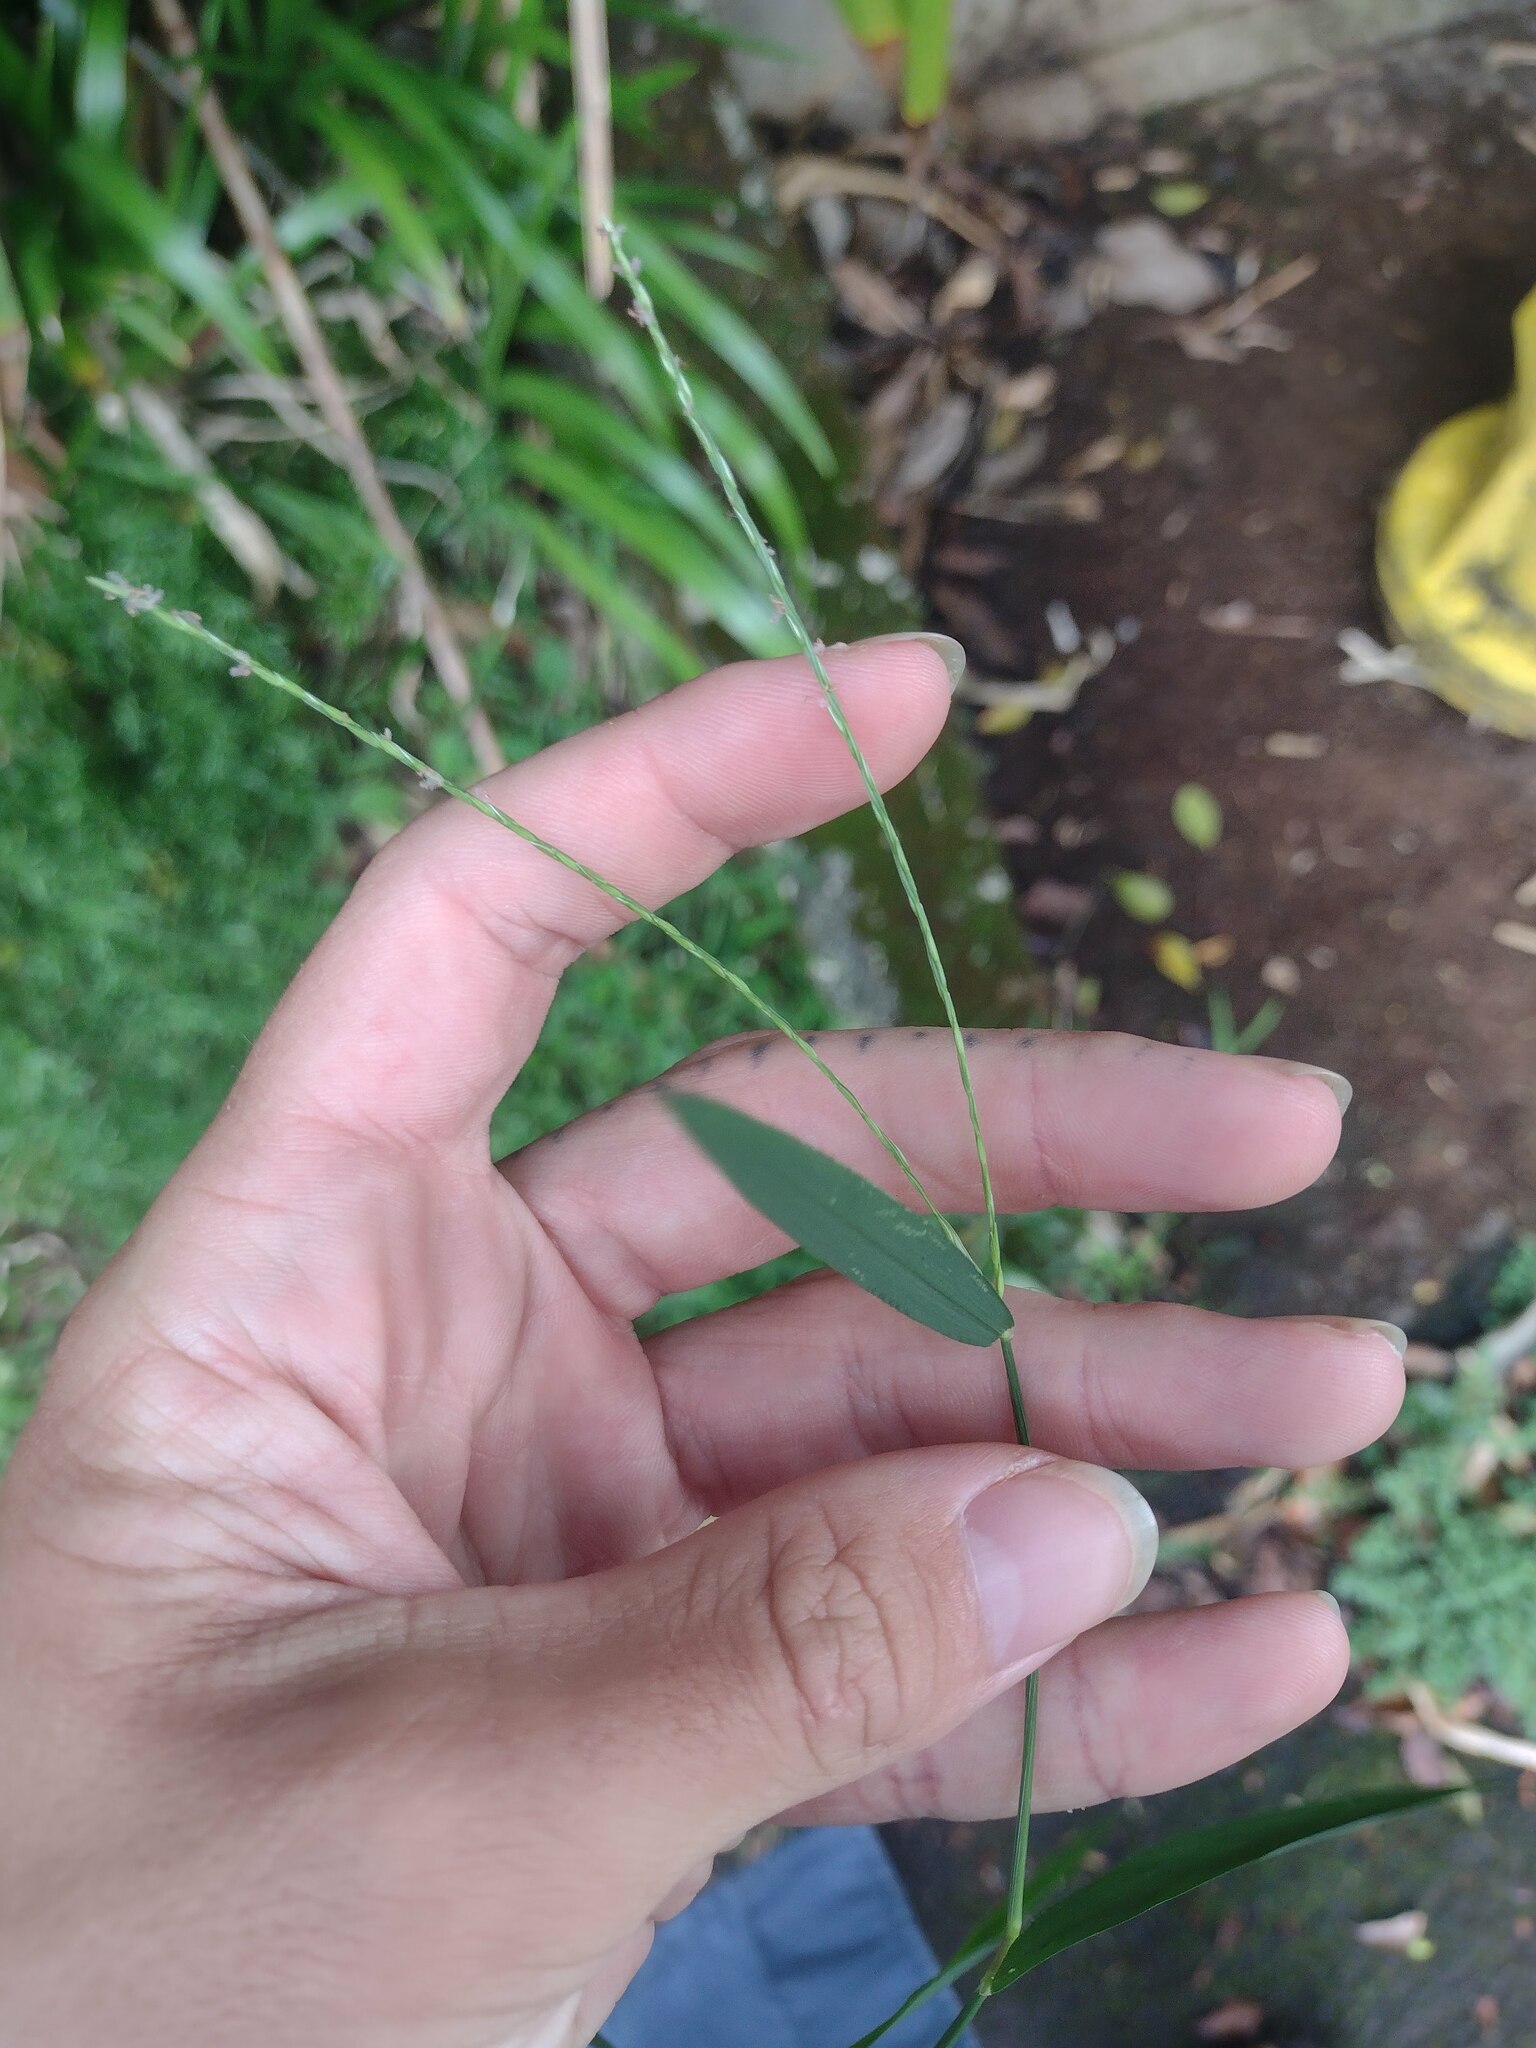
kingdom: Plantae
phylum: Tracheophyta
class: Liliopsida
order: Poales
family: Poaceae
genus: Digitaria
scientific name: Digitaria radicosa
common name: Trailing crabgrass
